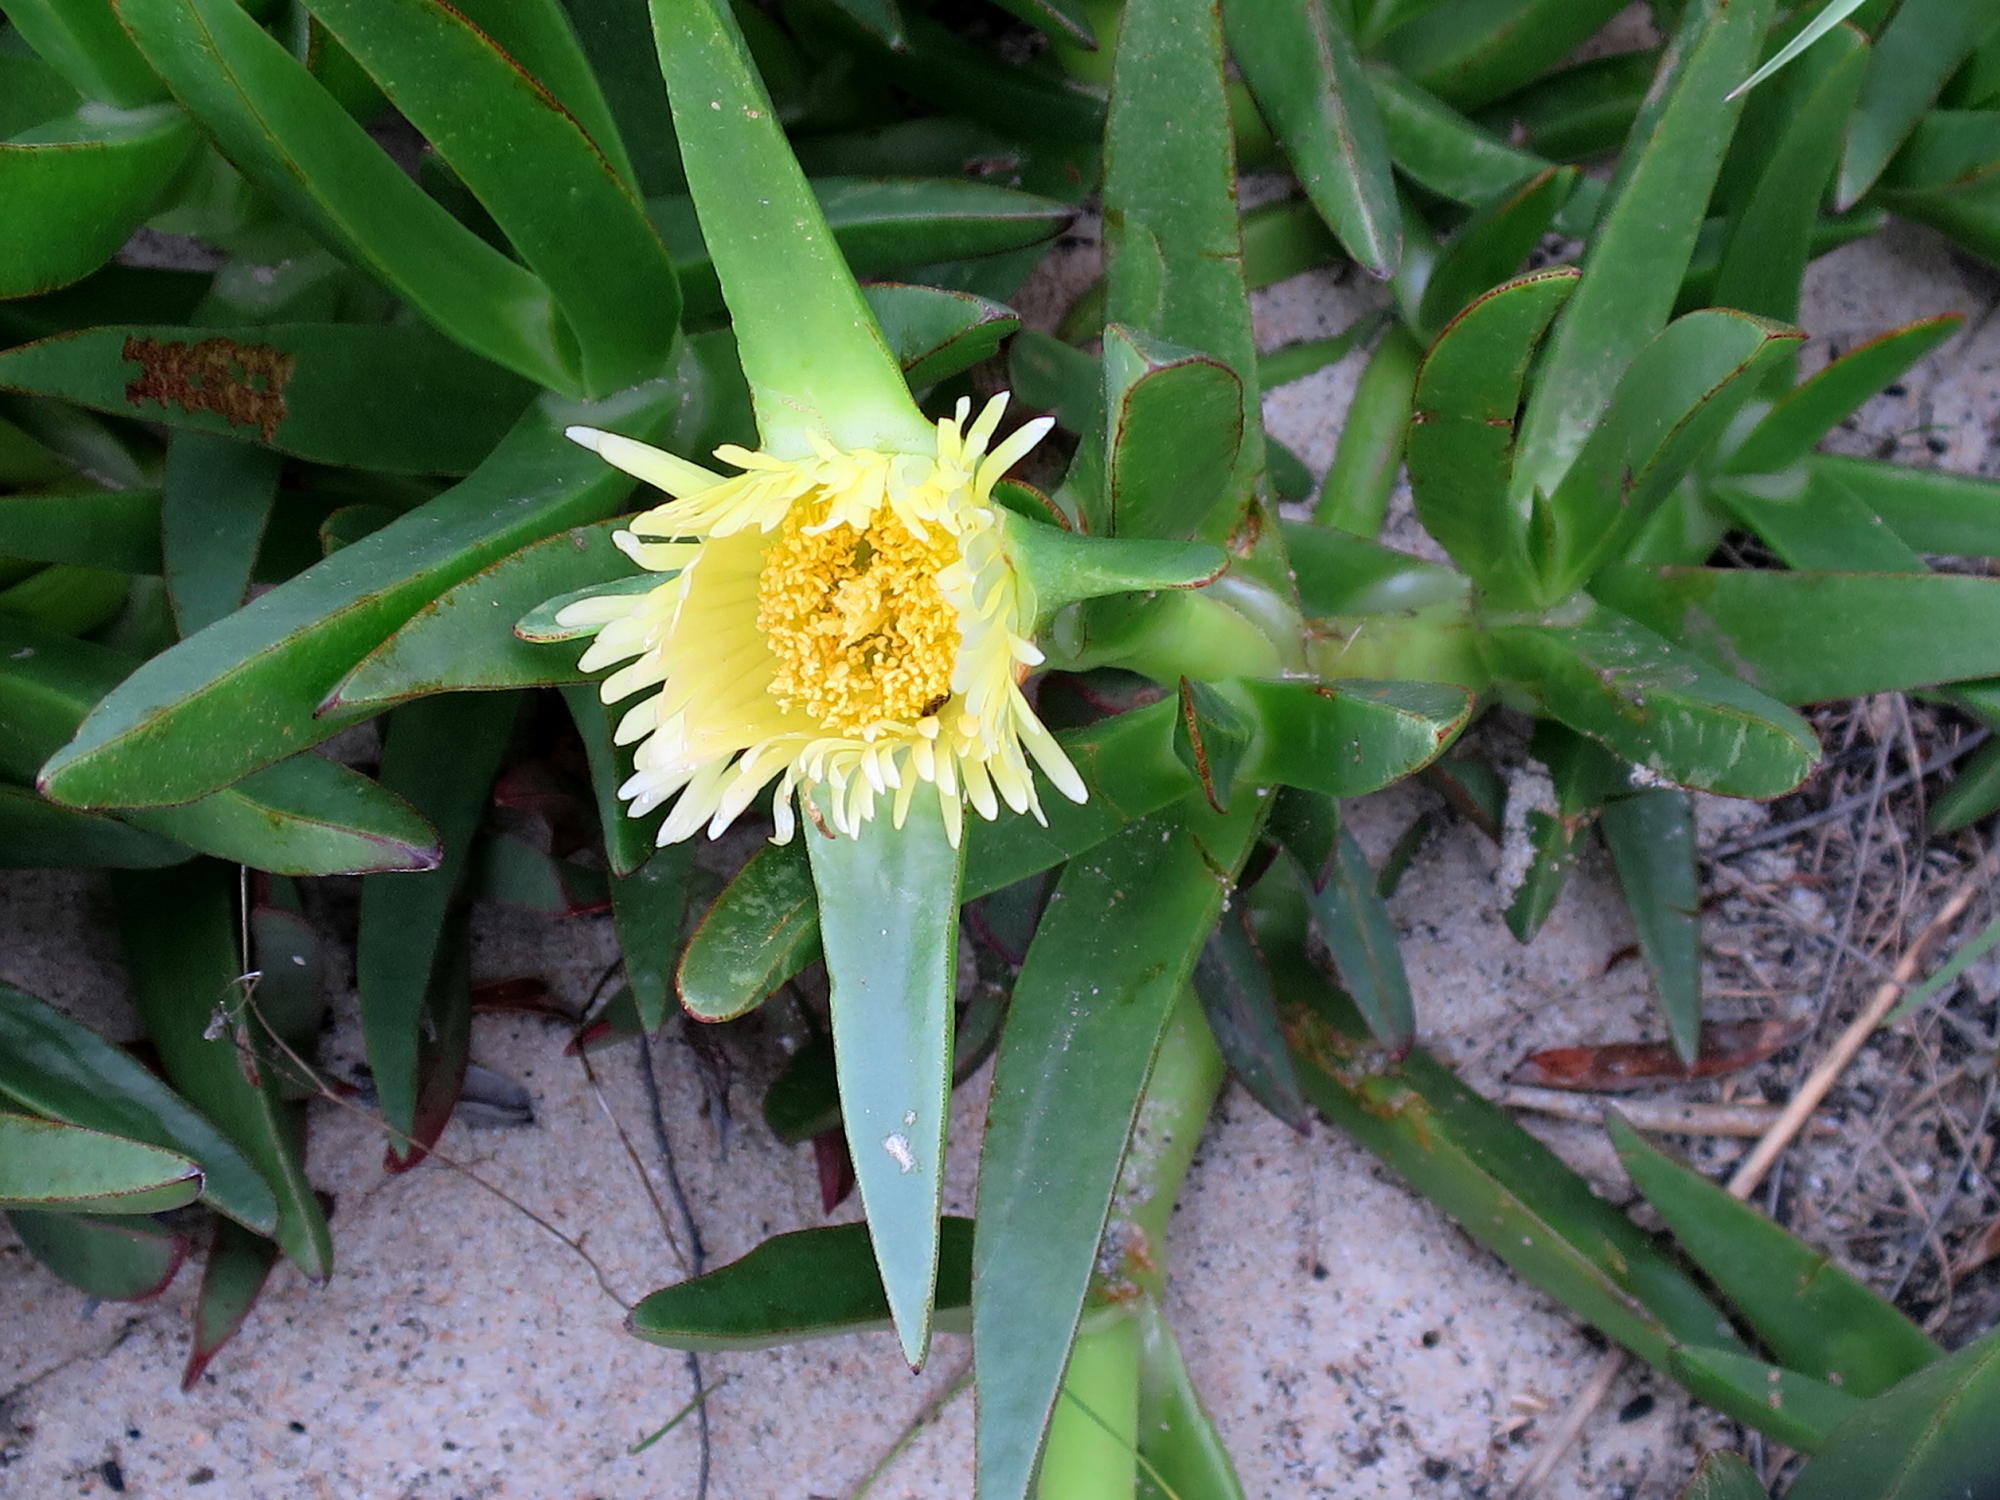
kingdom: Plantae
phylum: Tracheophyta
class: Magnoliopsida
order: Caryophyllales
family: Aizoaceae
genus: Carpobrotus
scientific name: Carpobrotus edulis
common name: Hottentot-fig
